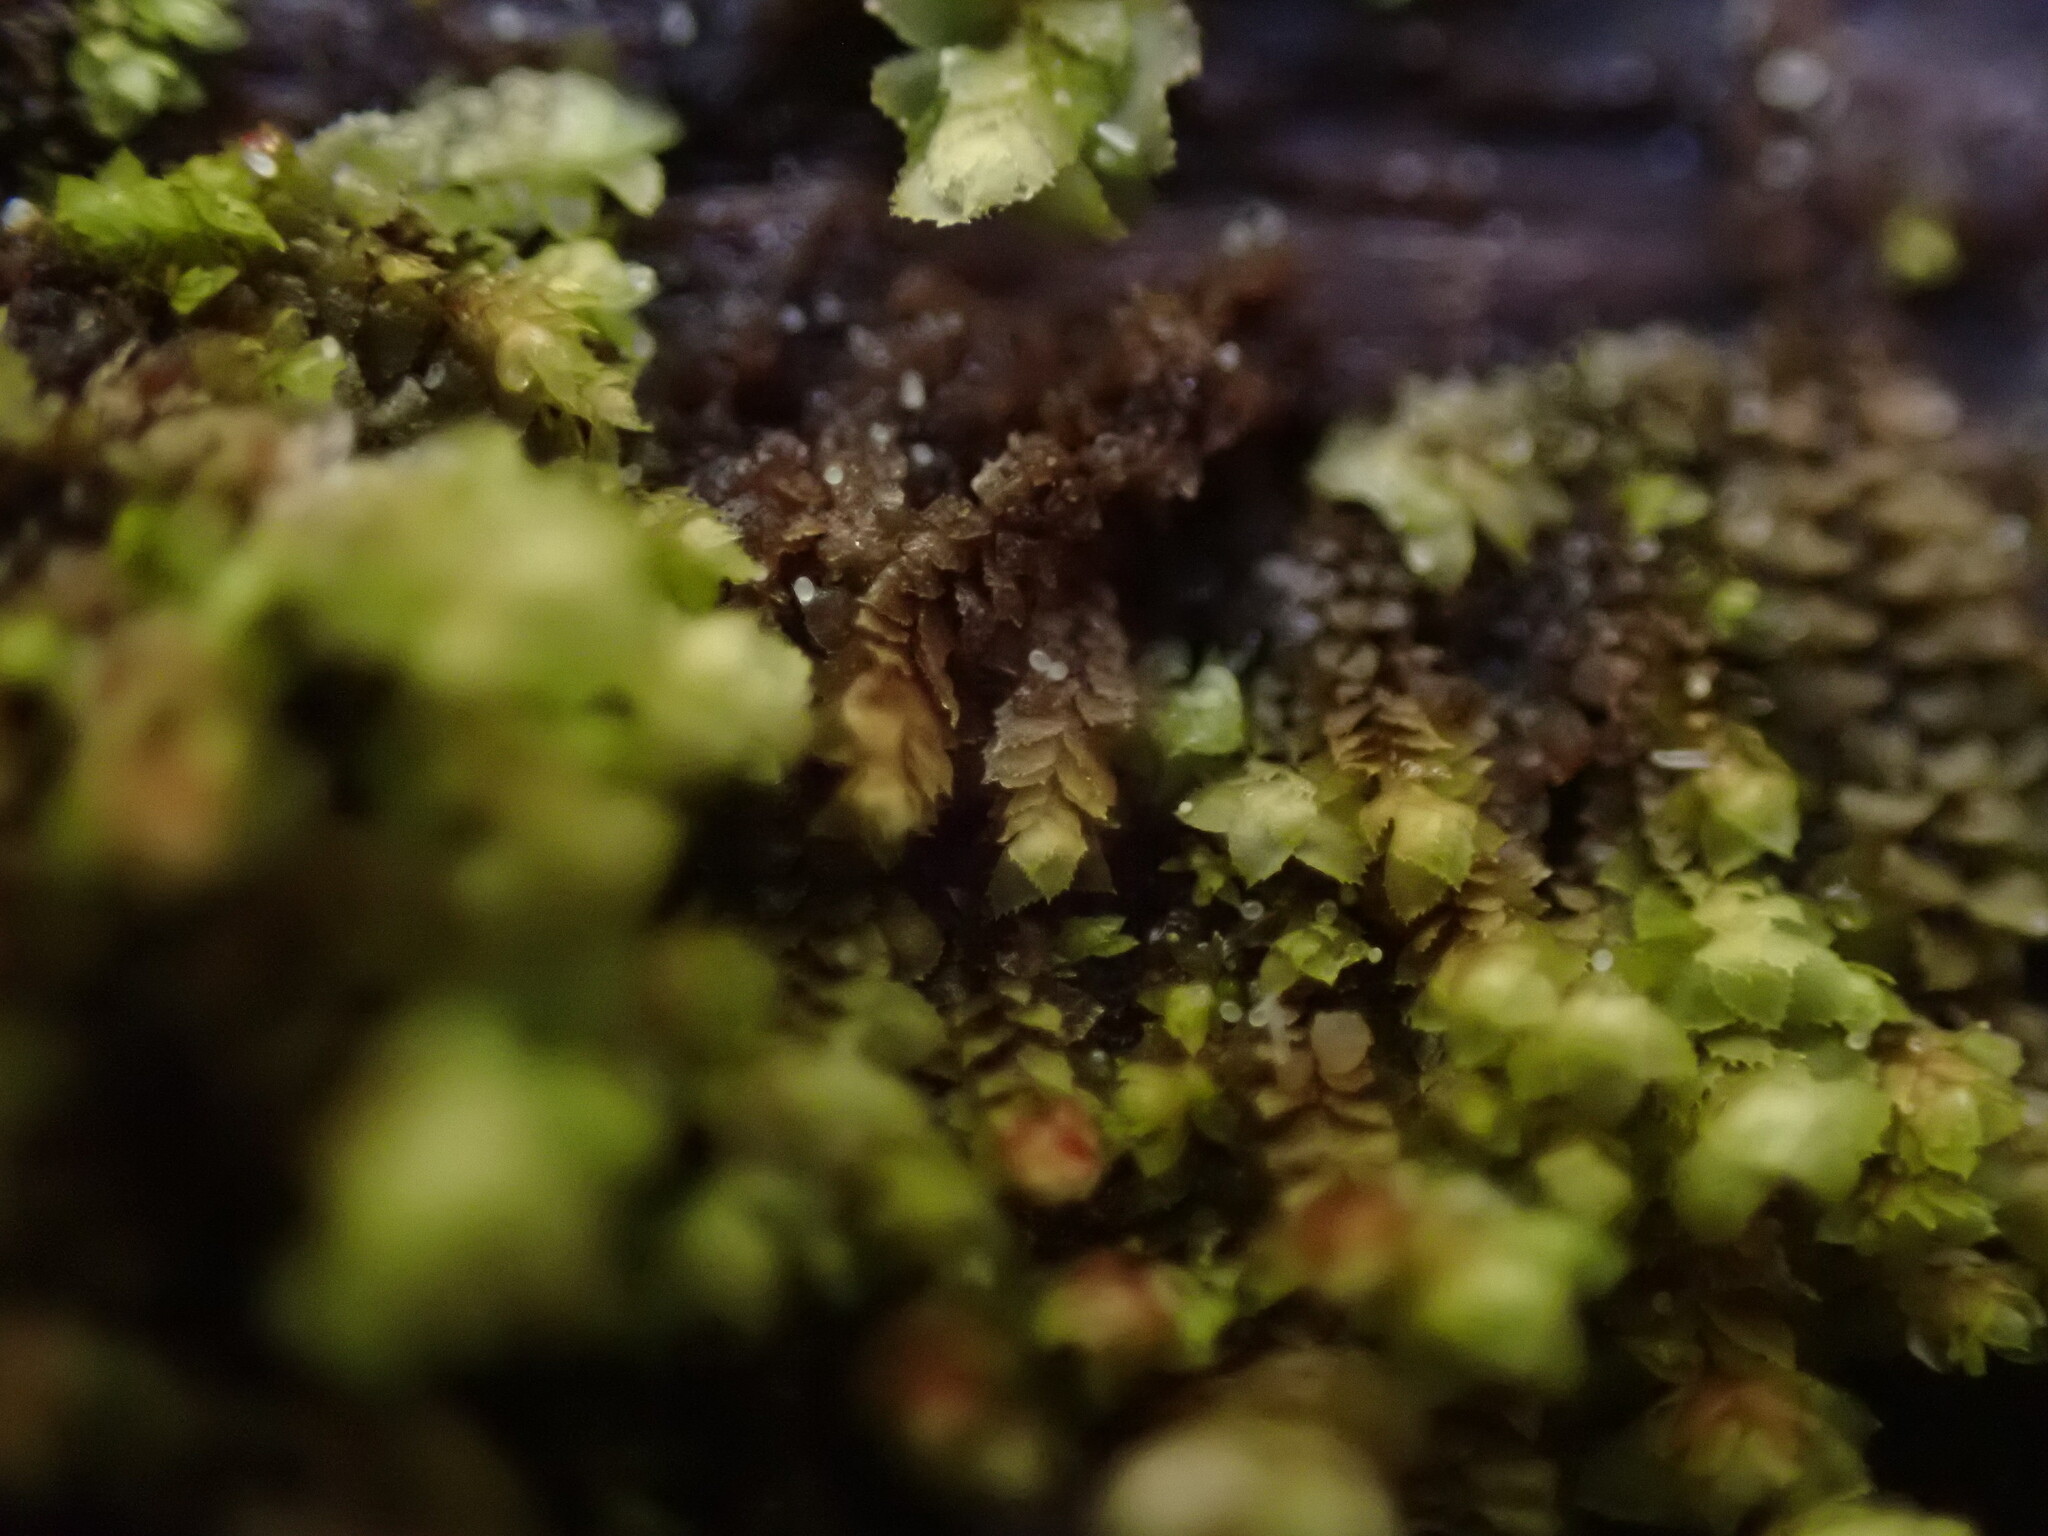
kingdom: Plantae
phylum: Marchantiophyta
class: Jungermanniopsida
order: Jungermanniales
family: Scapaniaceae
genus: Scapania
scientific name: Scapania umbrosa
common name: Shady earwort
